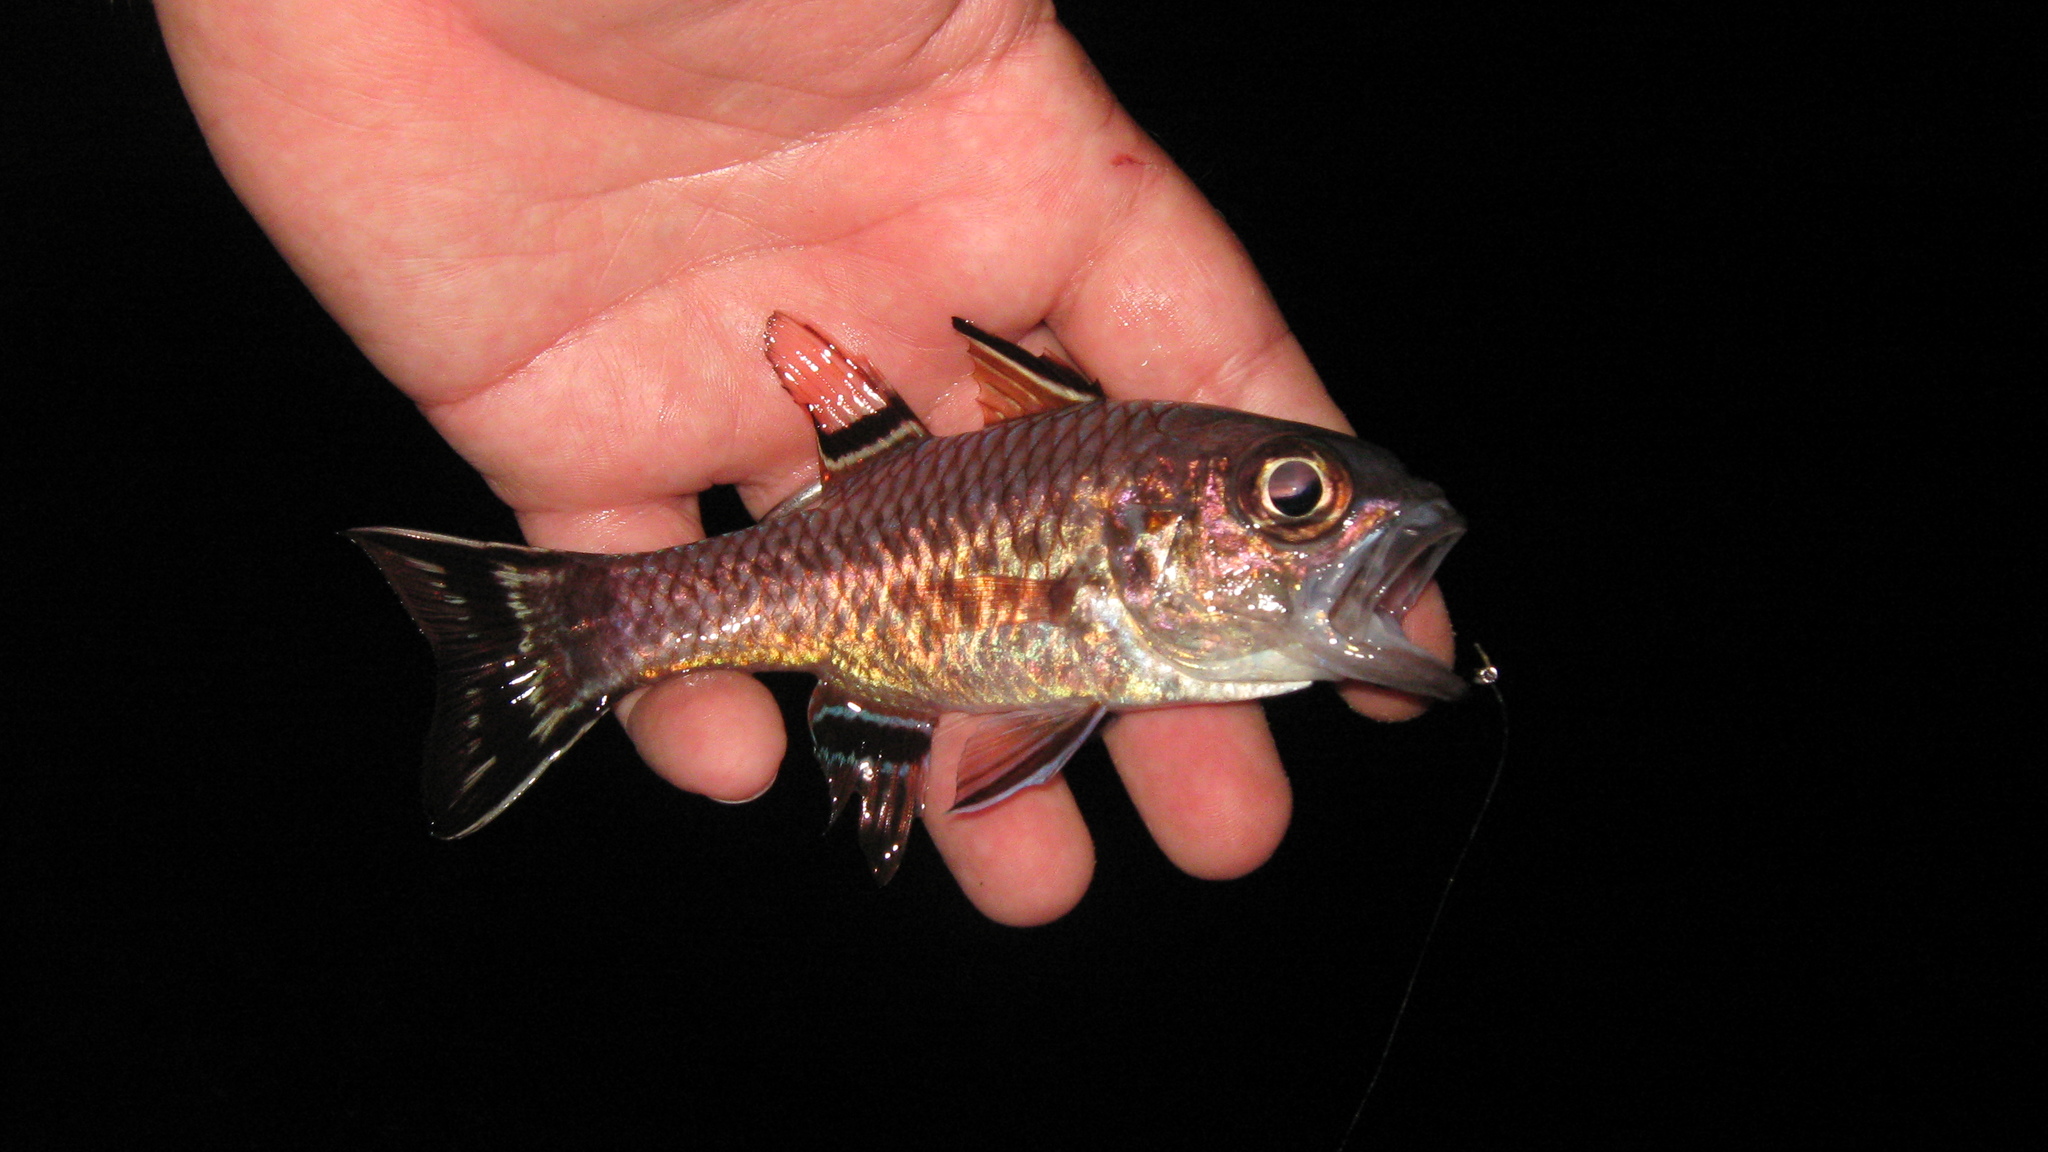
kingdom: Animalia
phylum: Chordata
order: Perciformes
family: Apogonidae
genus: Pristiapogon
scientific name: Pristiapogon taeniopterus
